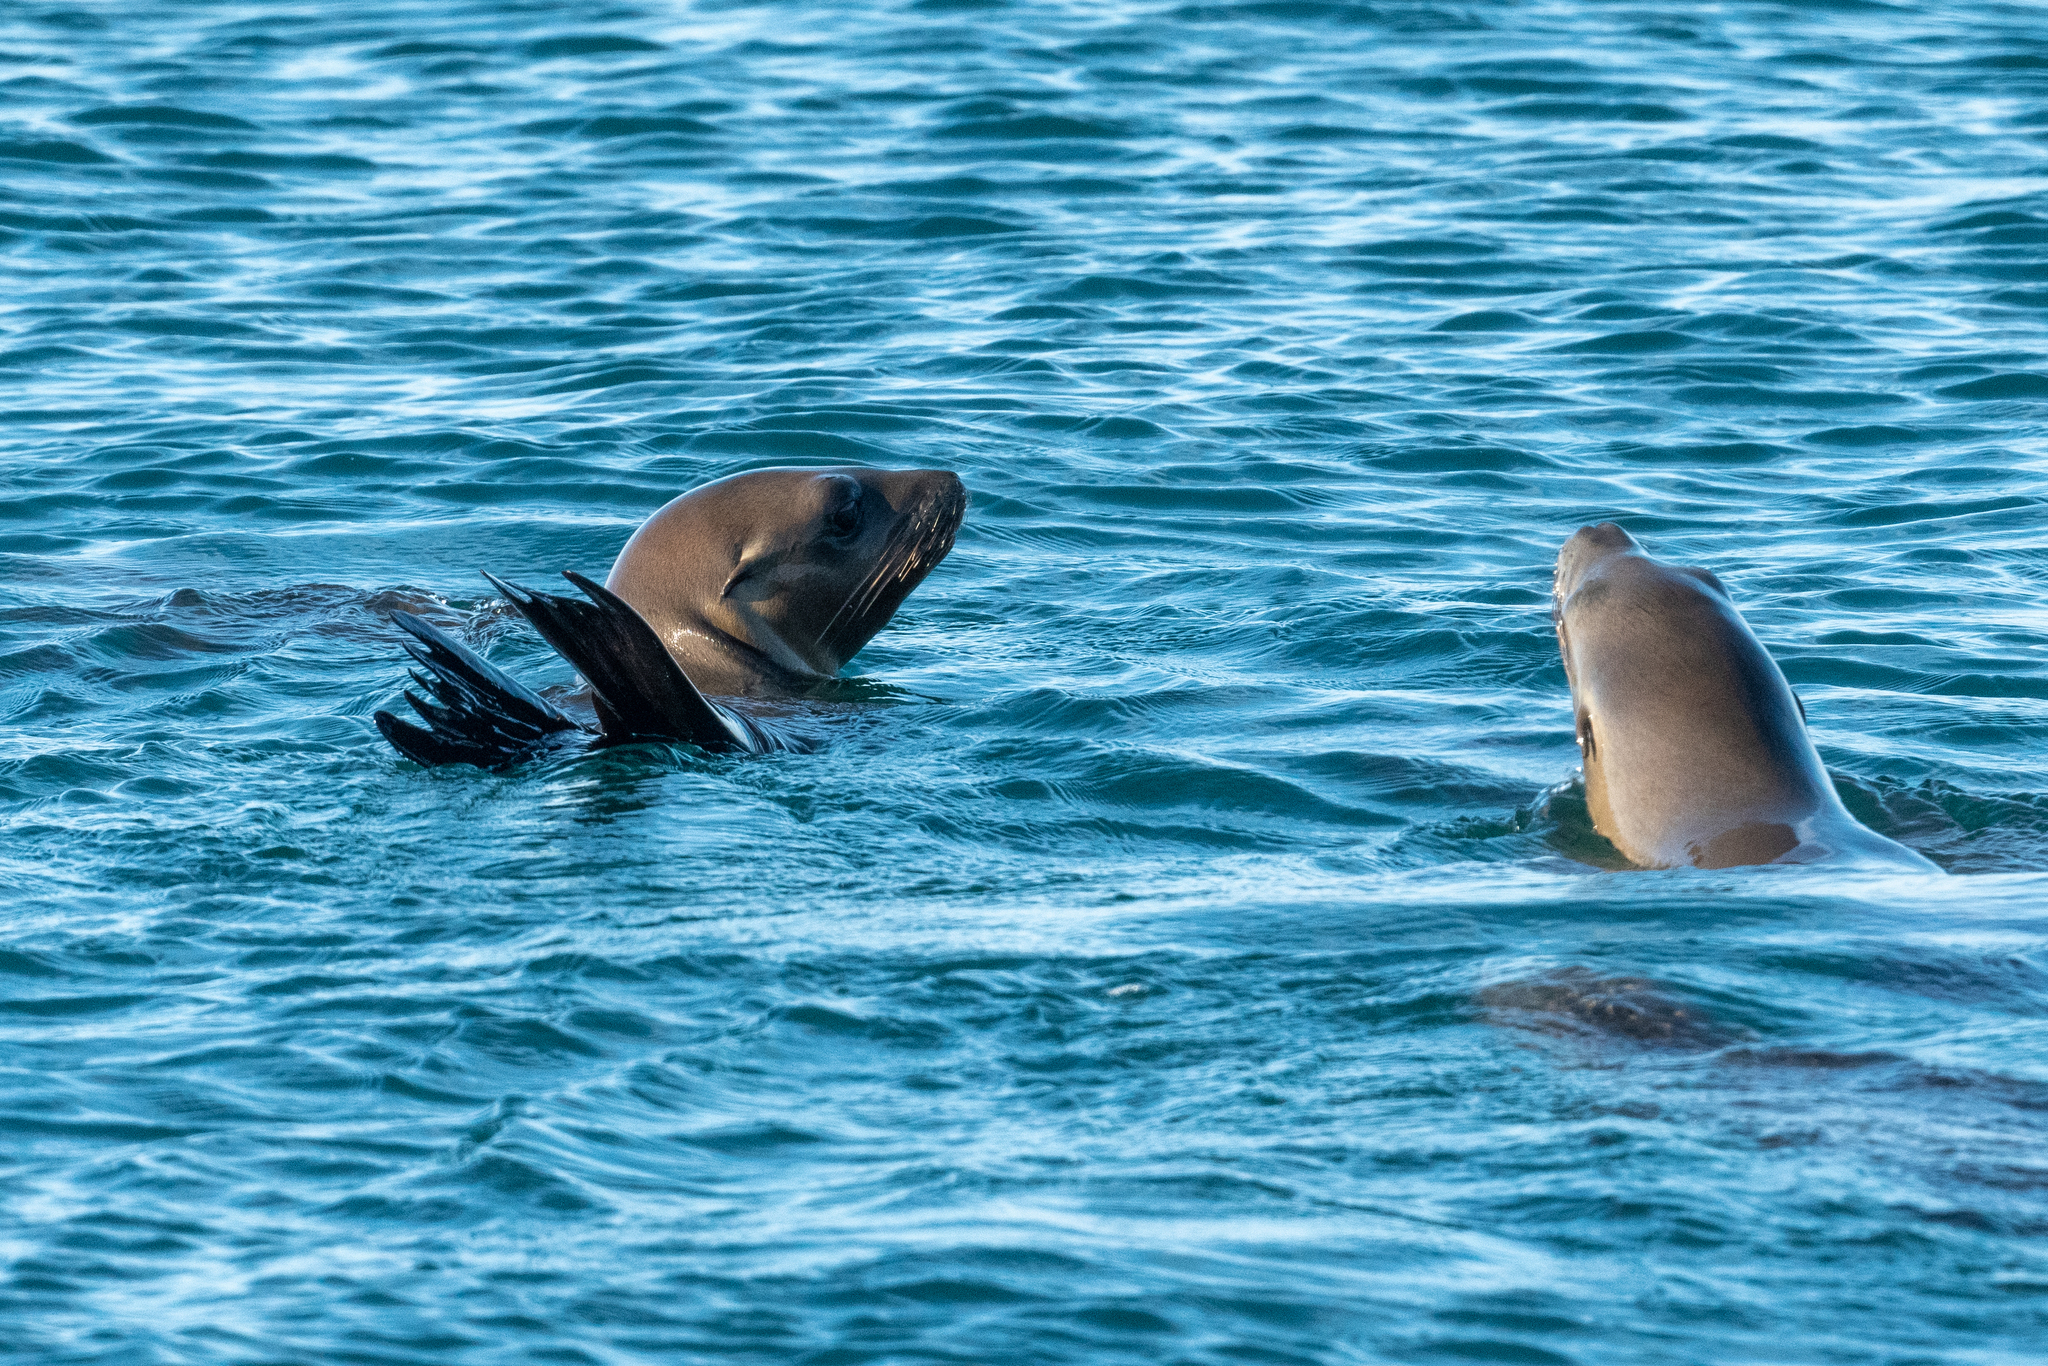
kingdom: Animalia
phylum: Chordata
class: Mammalia
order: Carnivora
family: Otariidae
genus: Zalophus
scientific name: Zalophus californianus
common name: California sea lion
